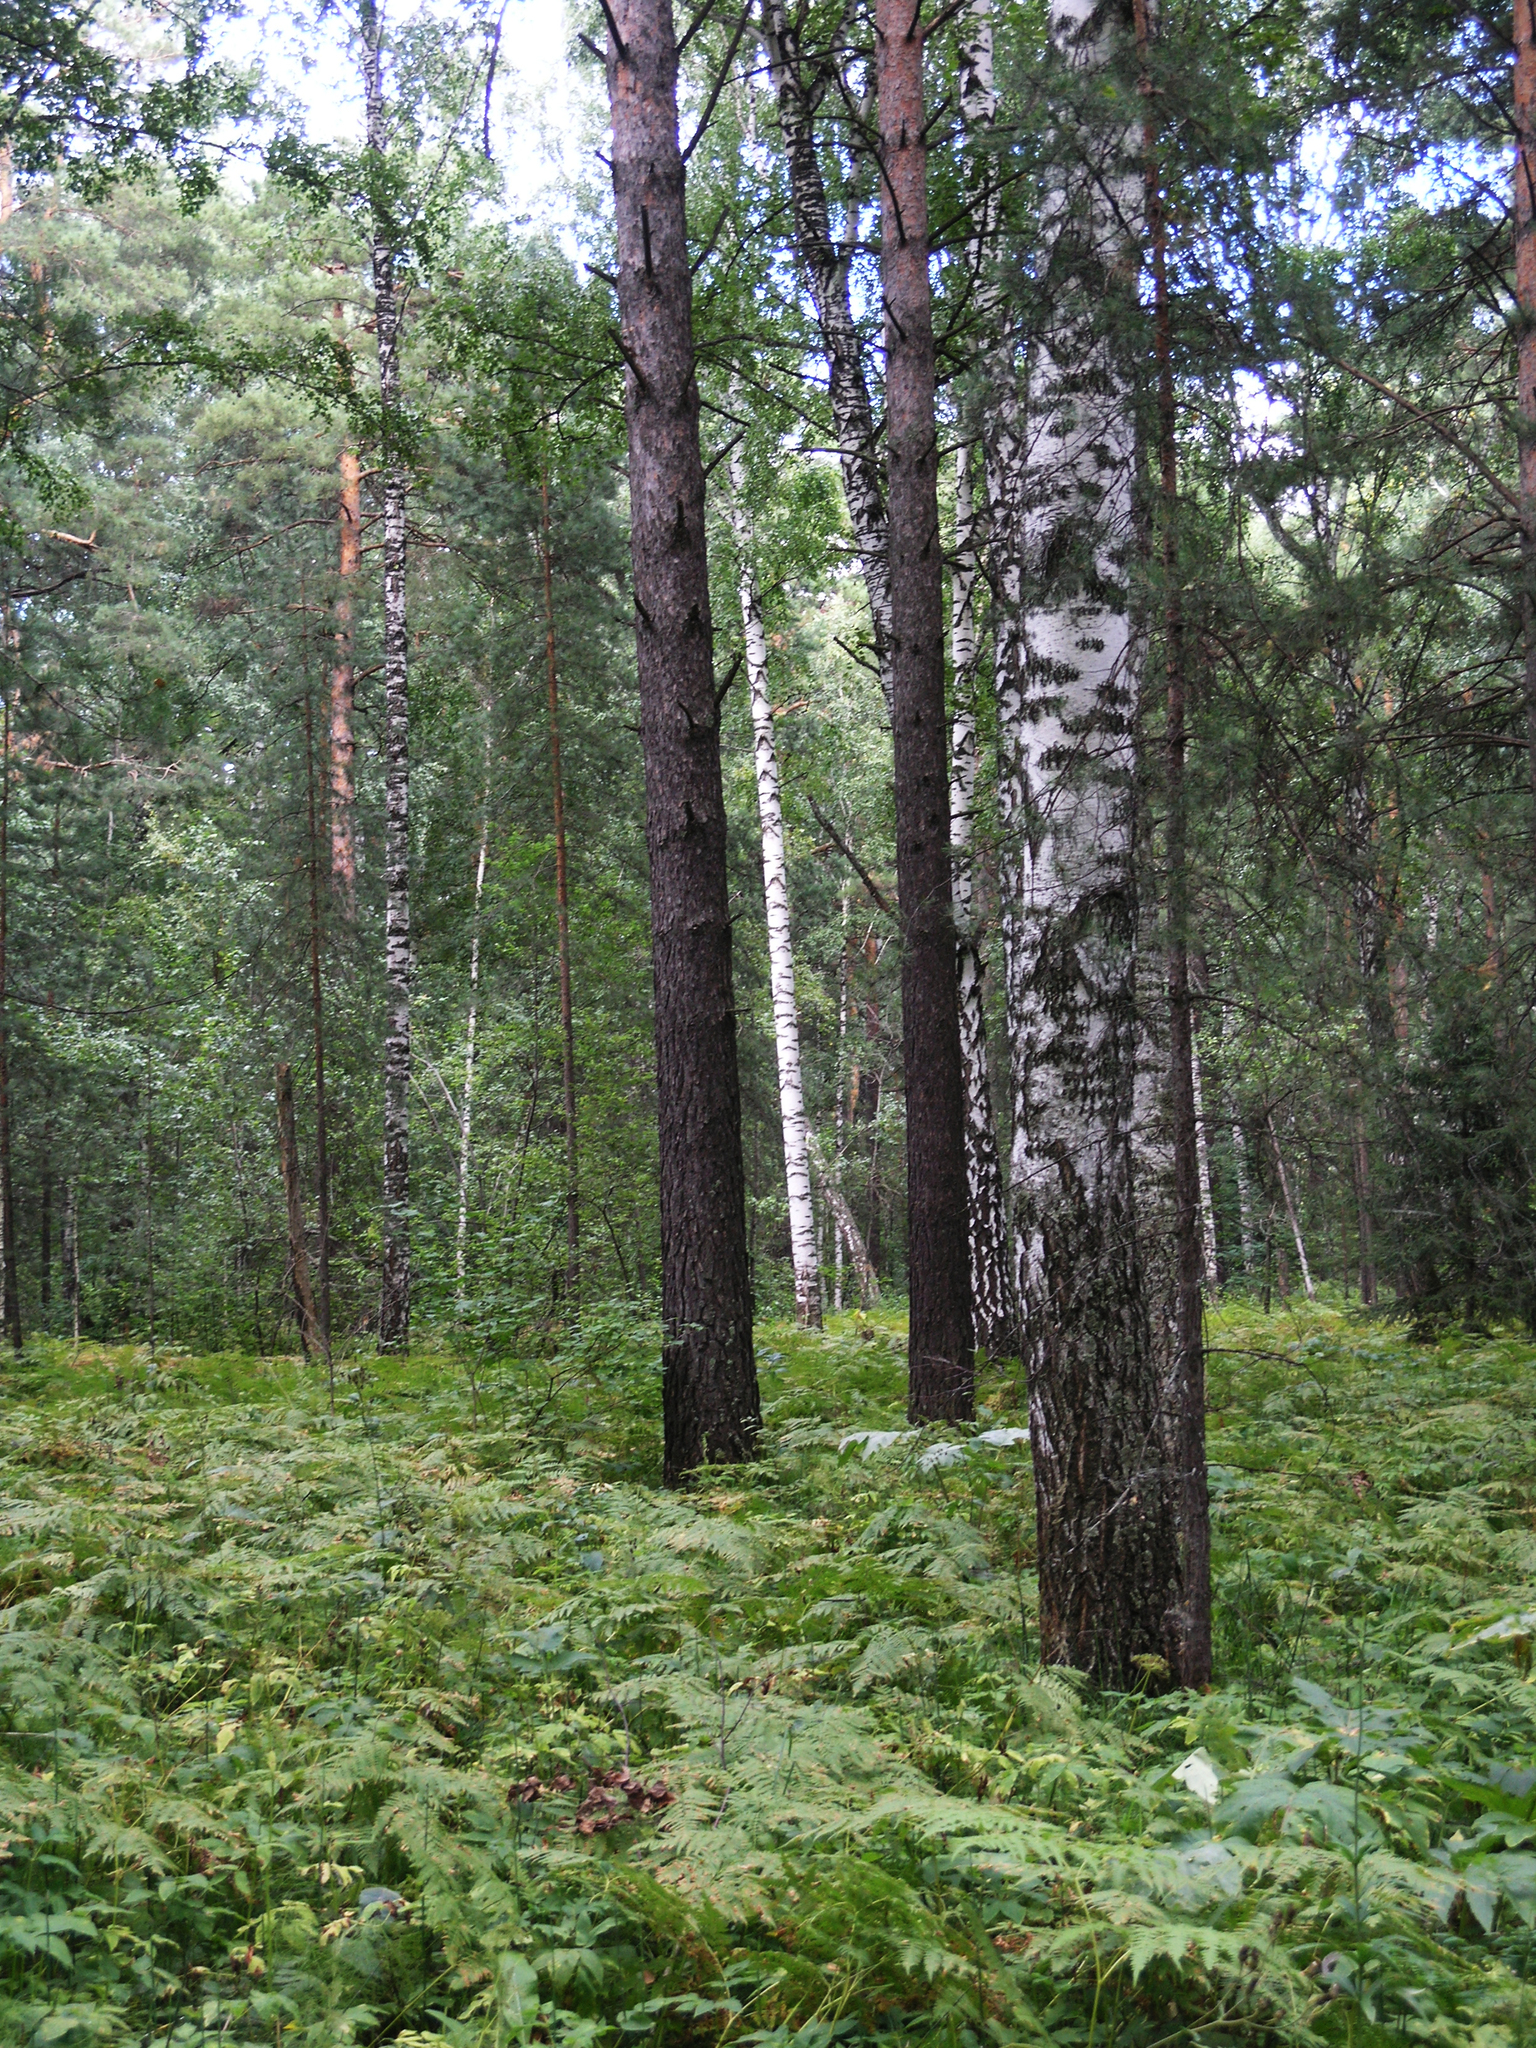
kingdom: Plantae
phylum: Tracheophyta
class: Magnoliopsida
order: Fagales
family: Betulaceae
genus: Betula
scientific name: Betula pendula
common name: Silver birch
